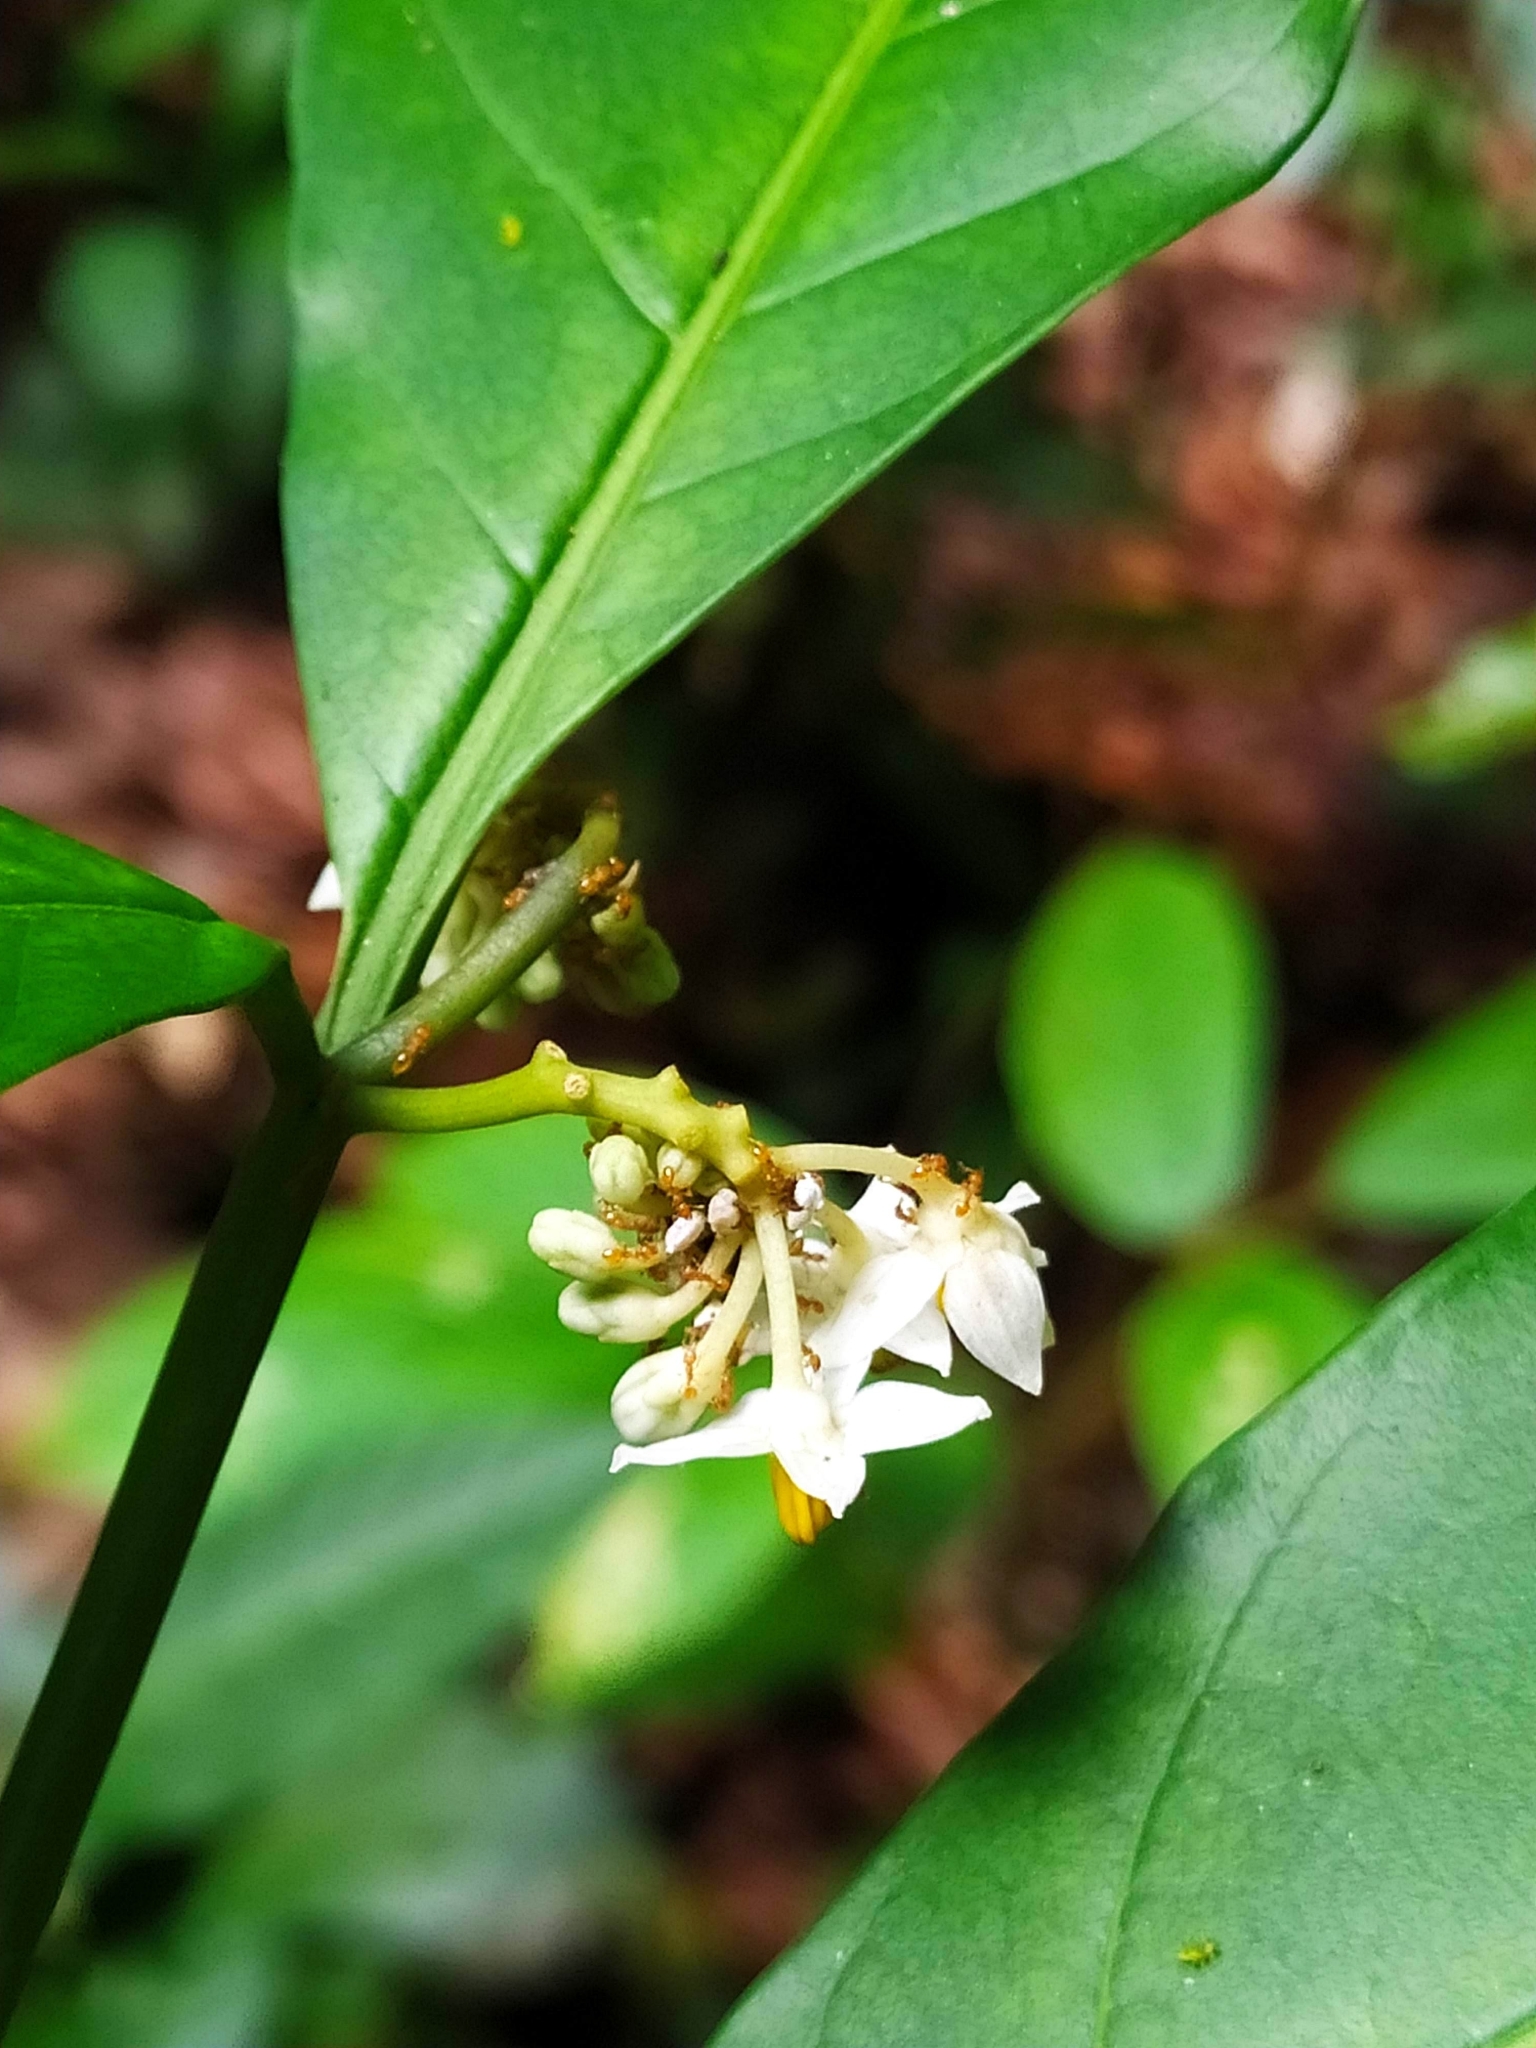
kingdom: Plantae
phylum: Tracheophyta
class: Magnoliopsida
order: Solanales
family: Solanaceae
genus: Solanum
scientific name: Solanum oppositifolium
